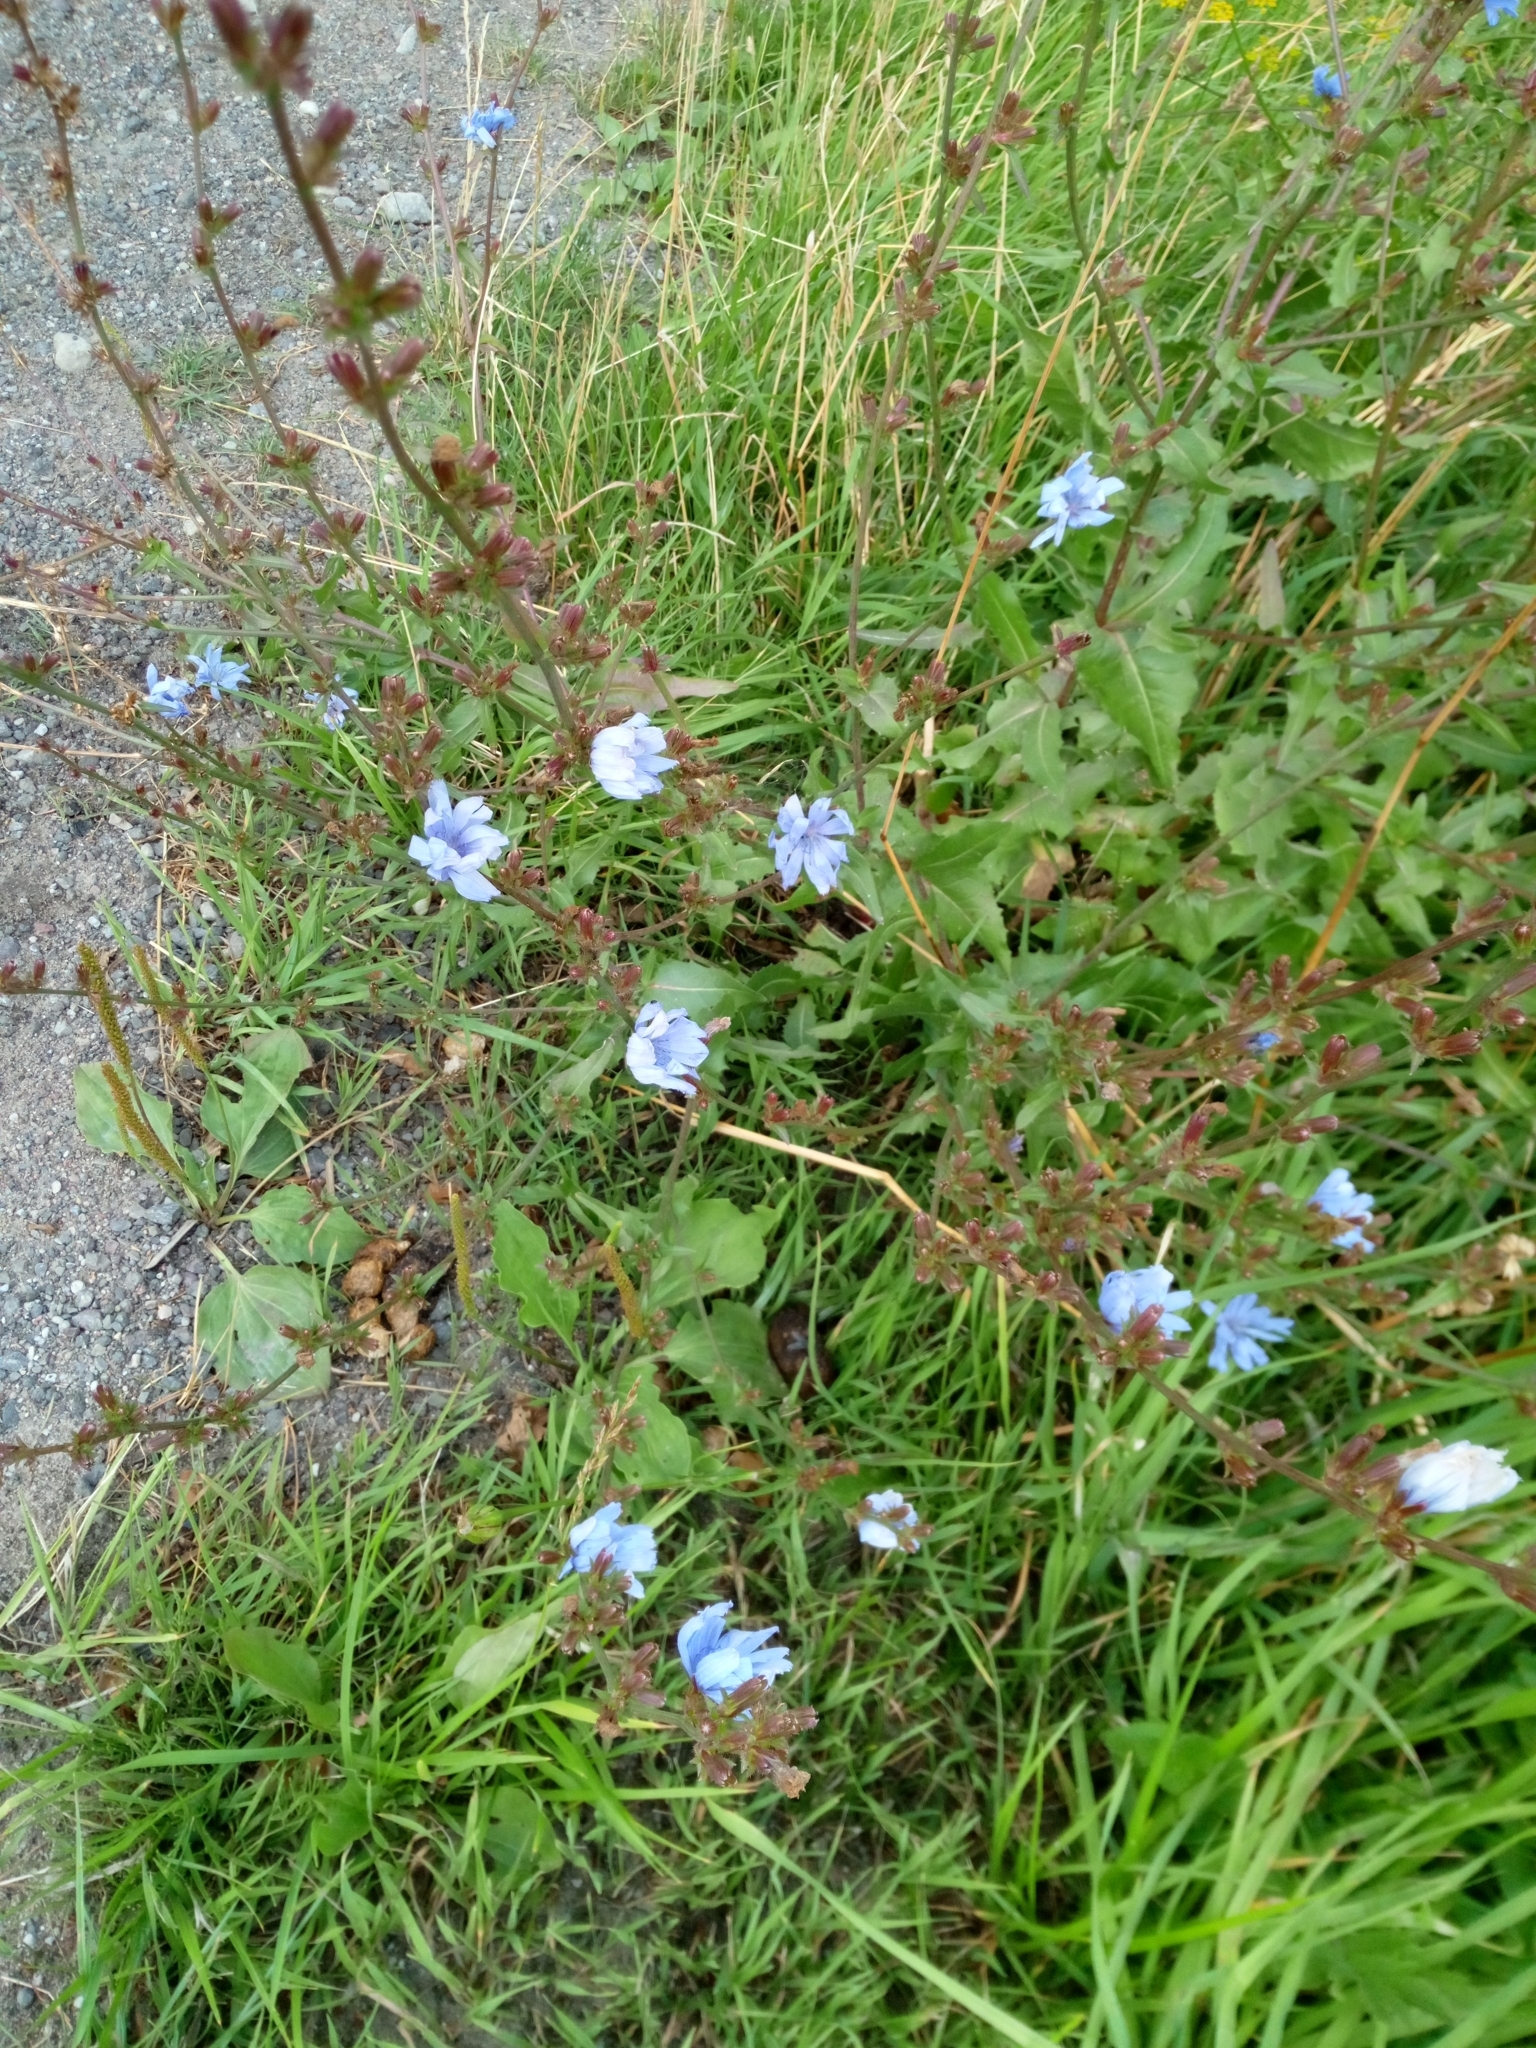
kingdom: Plantae
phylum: Tracheophyta
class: Magnoliopsida
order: Asterales
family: Asteraceae
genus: Cichorium
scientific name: Cichorium intybus
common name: Chicory
